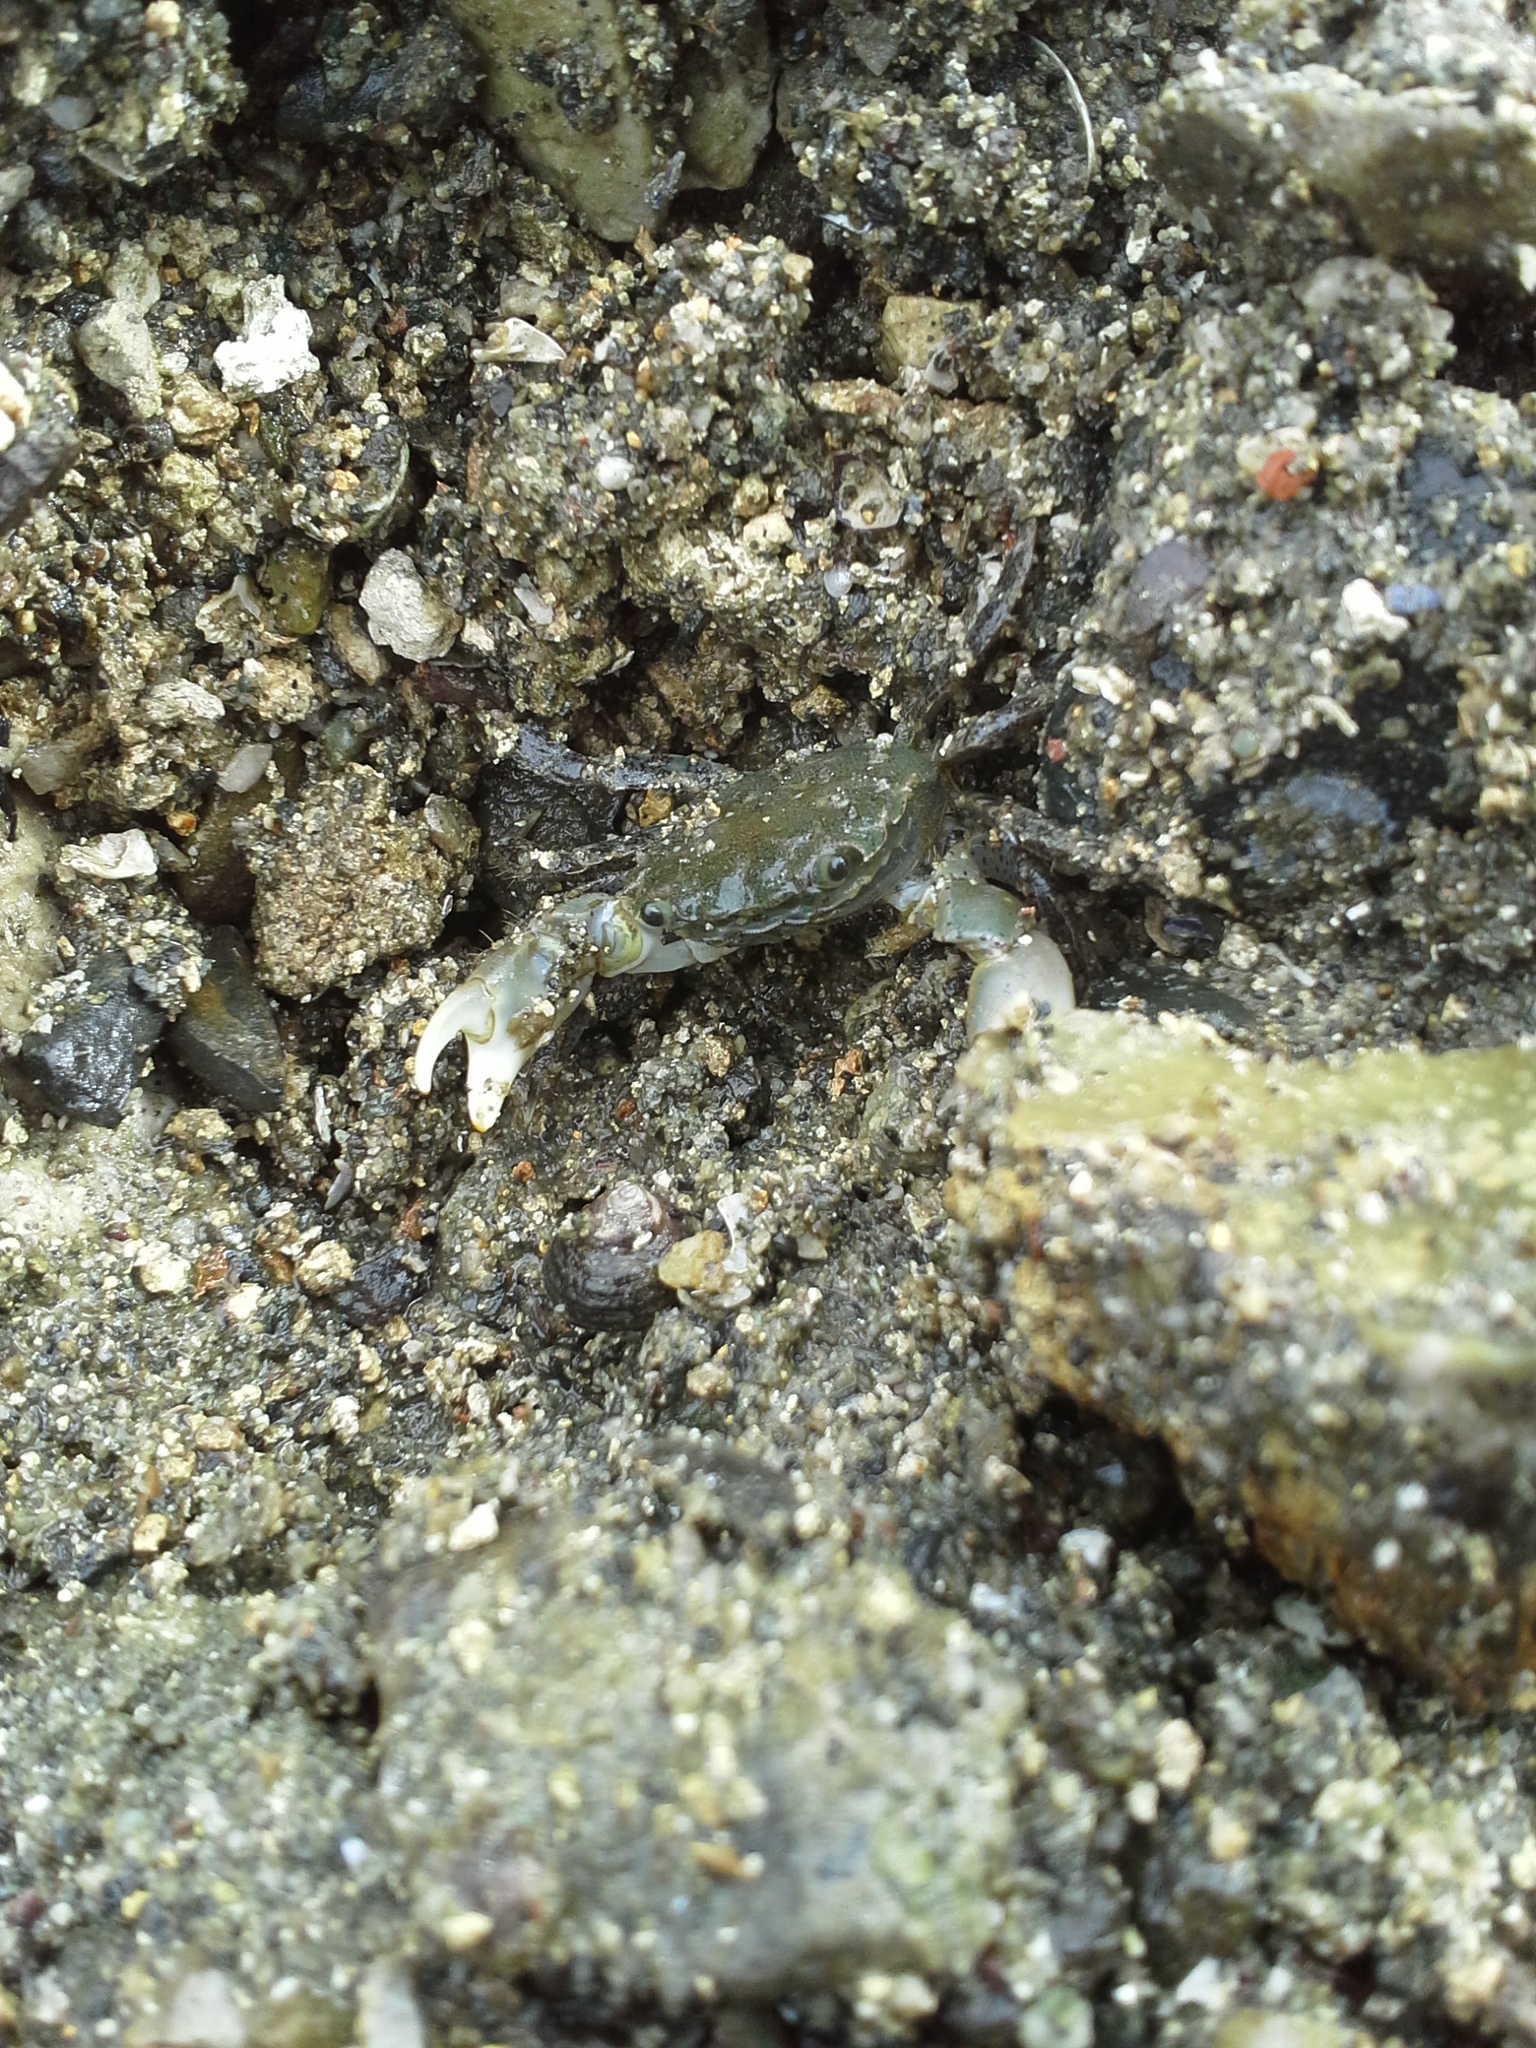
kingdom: Animalia
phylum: Arthropoda
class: Malacostraca
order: Decapoda
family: Varunidae
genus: Hemigrapsus
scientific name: Hemigrapsus oregonensis
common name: Yellow shore crab
